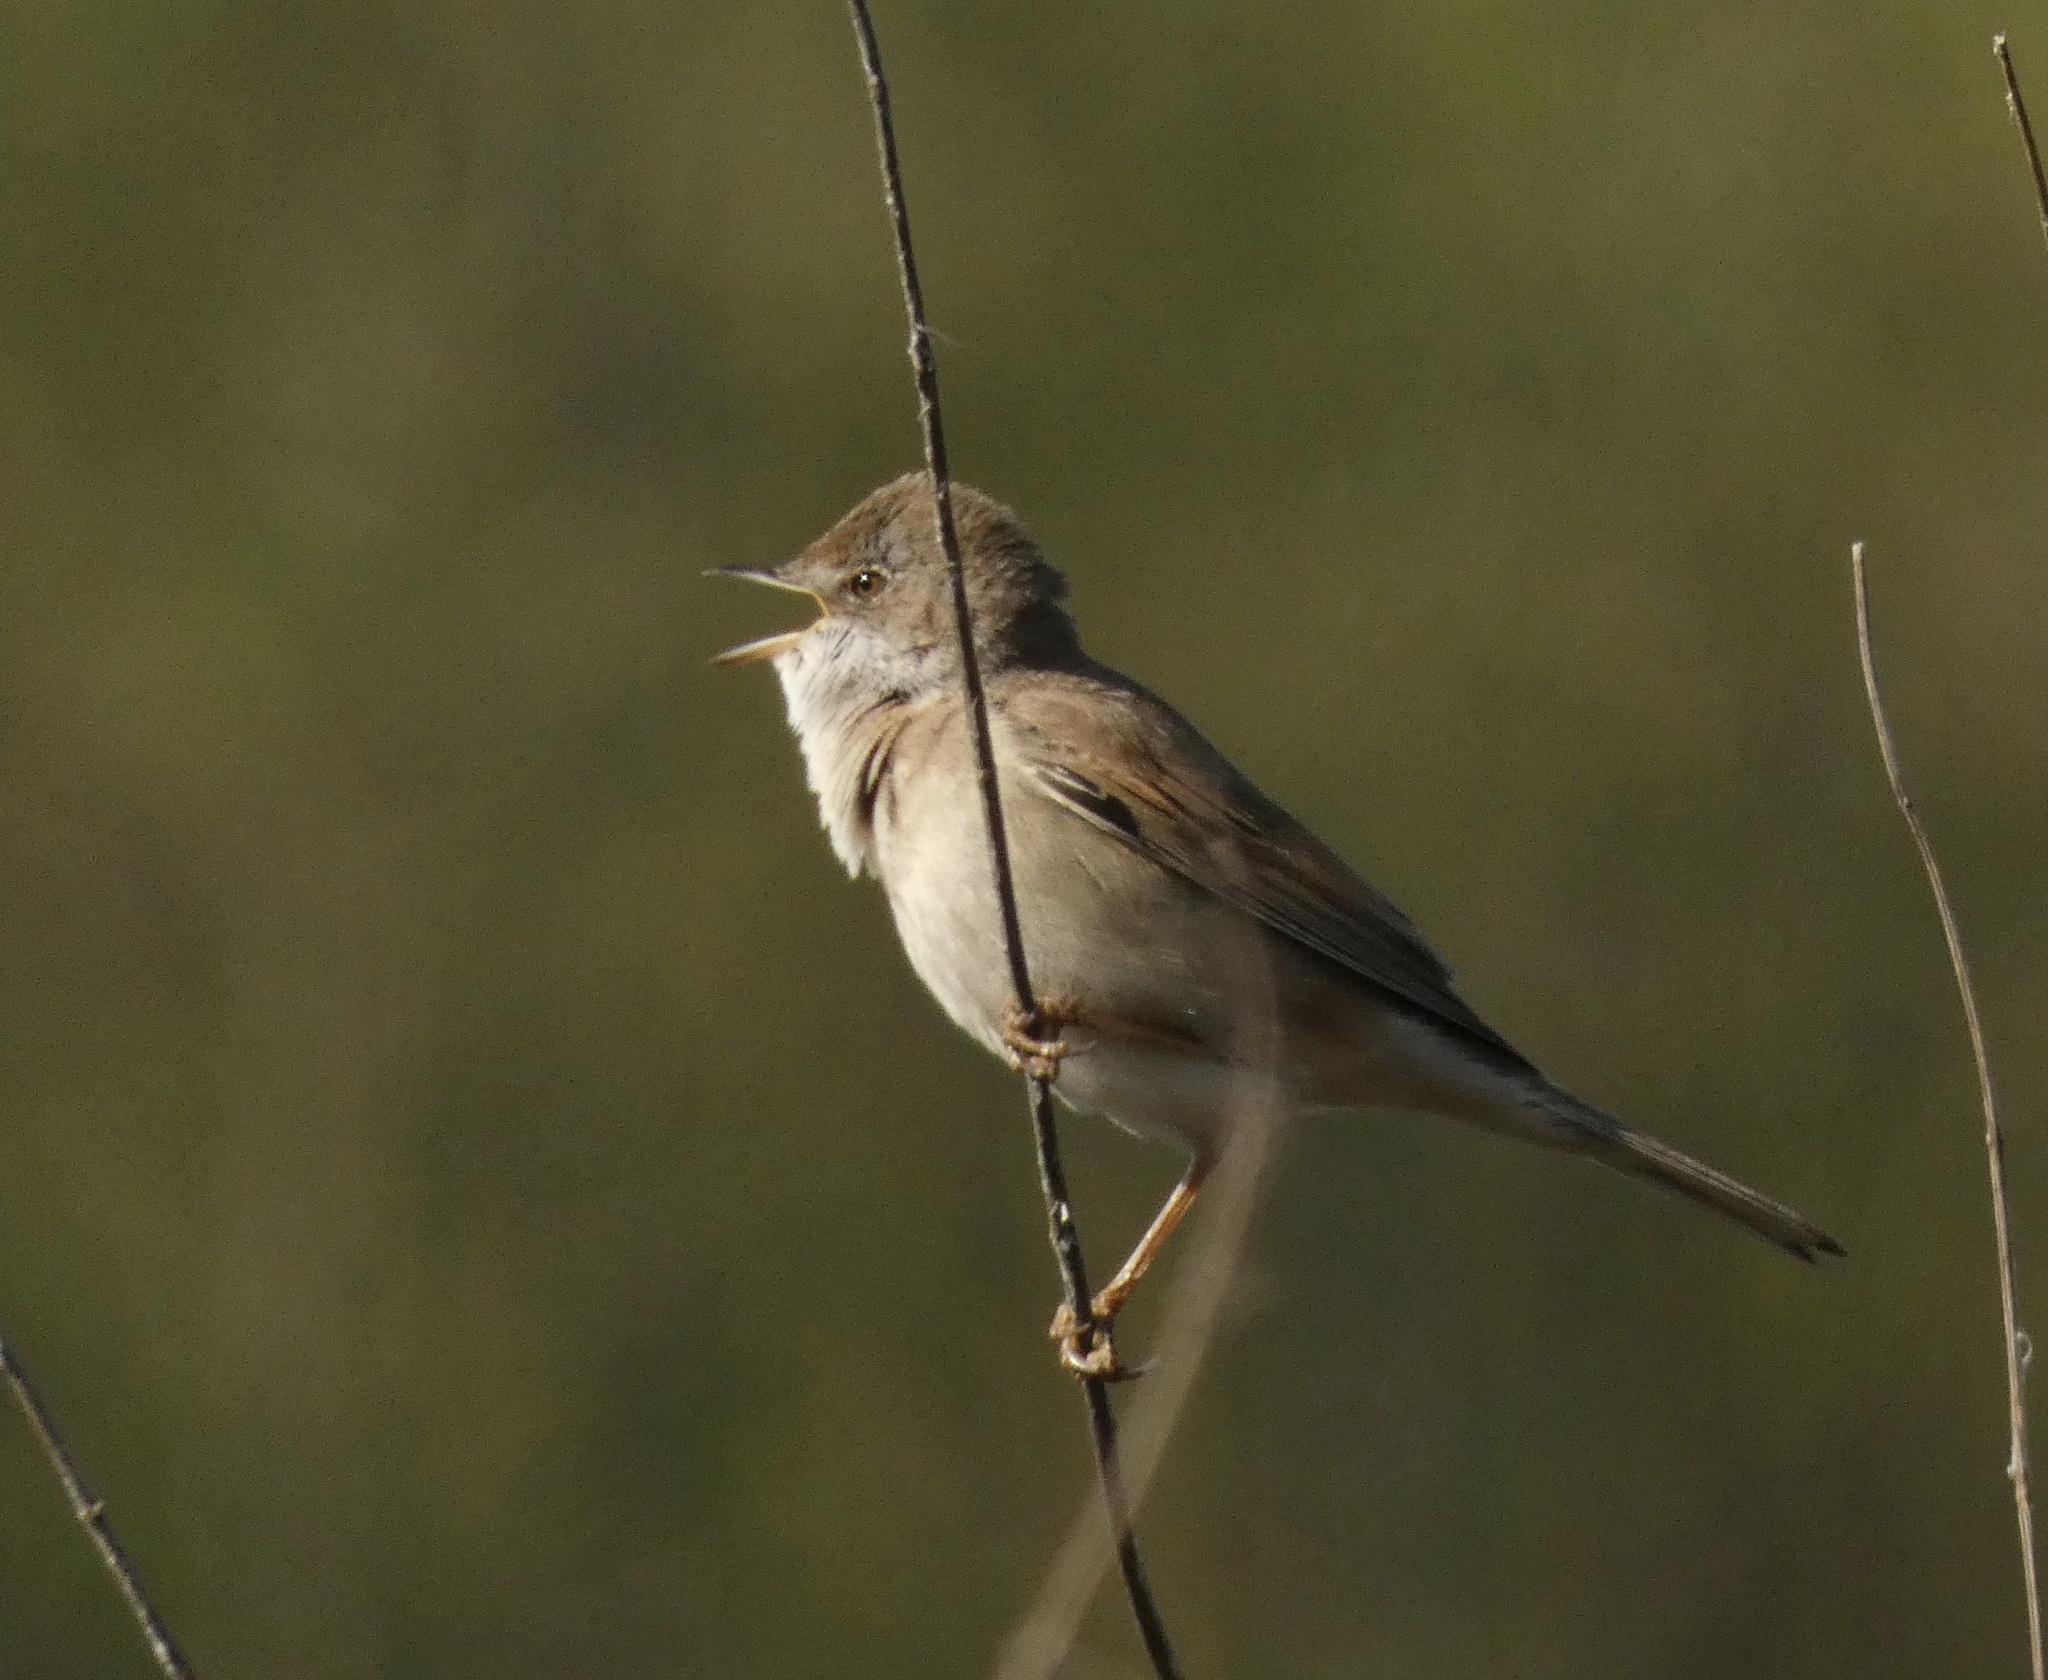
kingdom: Animalia
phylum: Chordata
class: Aves
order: Passeriformes
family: Sylviidae
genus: Sylvia
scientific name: Sylvia communis
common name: Common whitethroat
